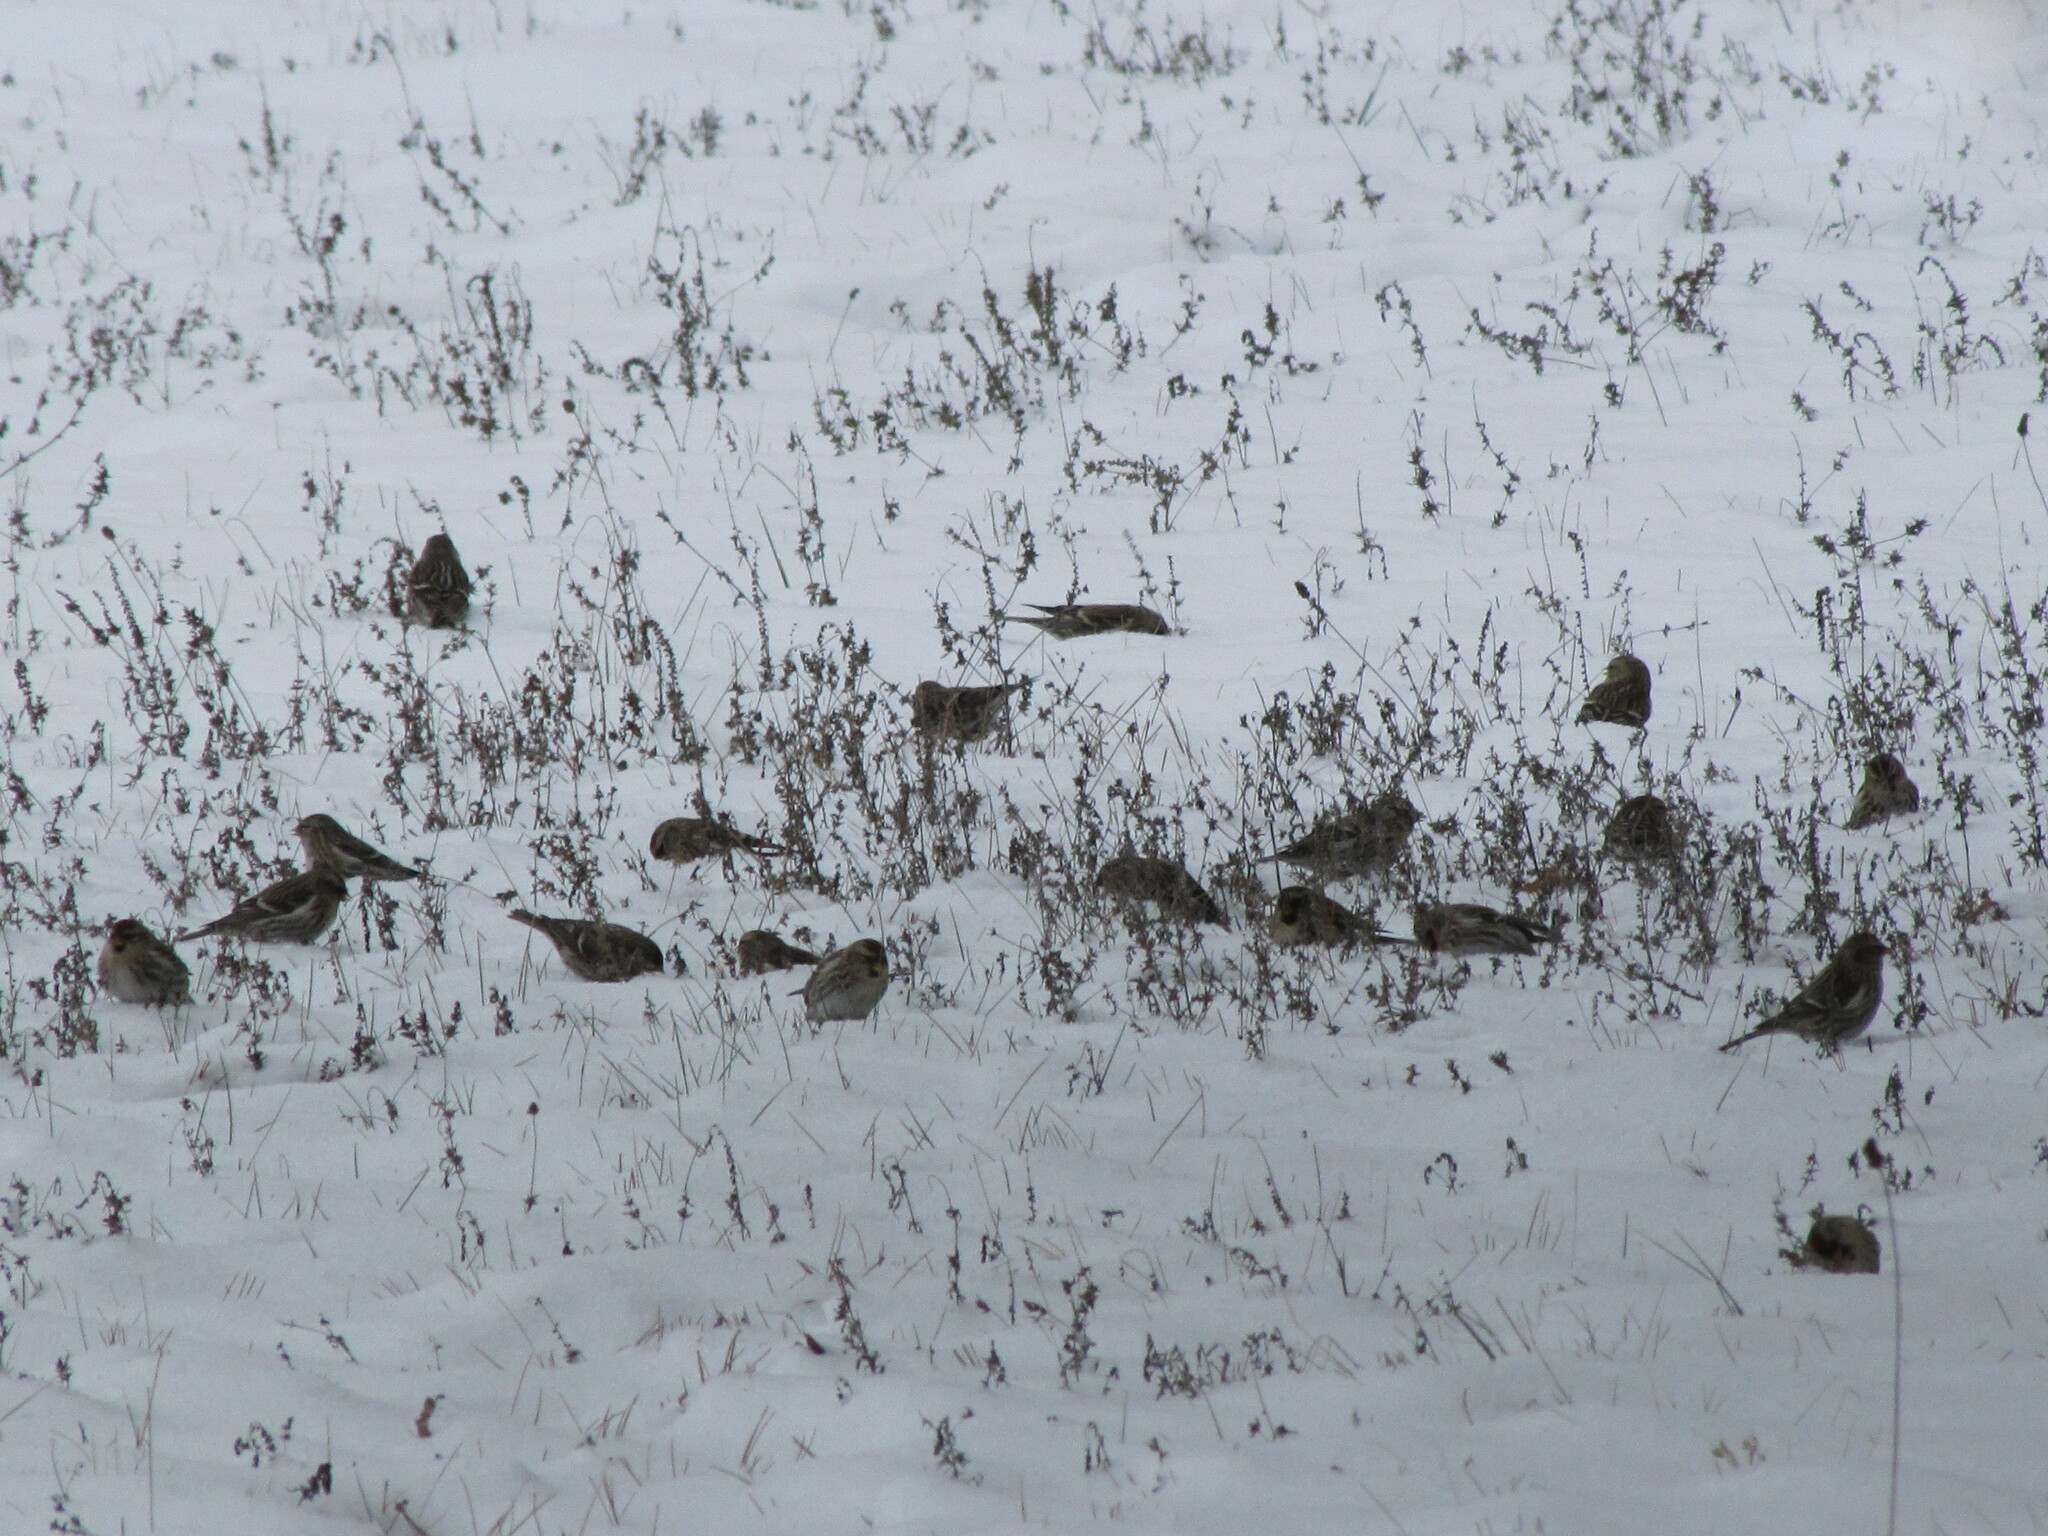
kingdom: Animalia
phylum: Chordata
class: Aves
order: Passeriformes
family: Fringillidae
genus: Acanthis
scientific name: Acanthis flammea
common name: Common redpoll
